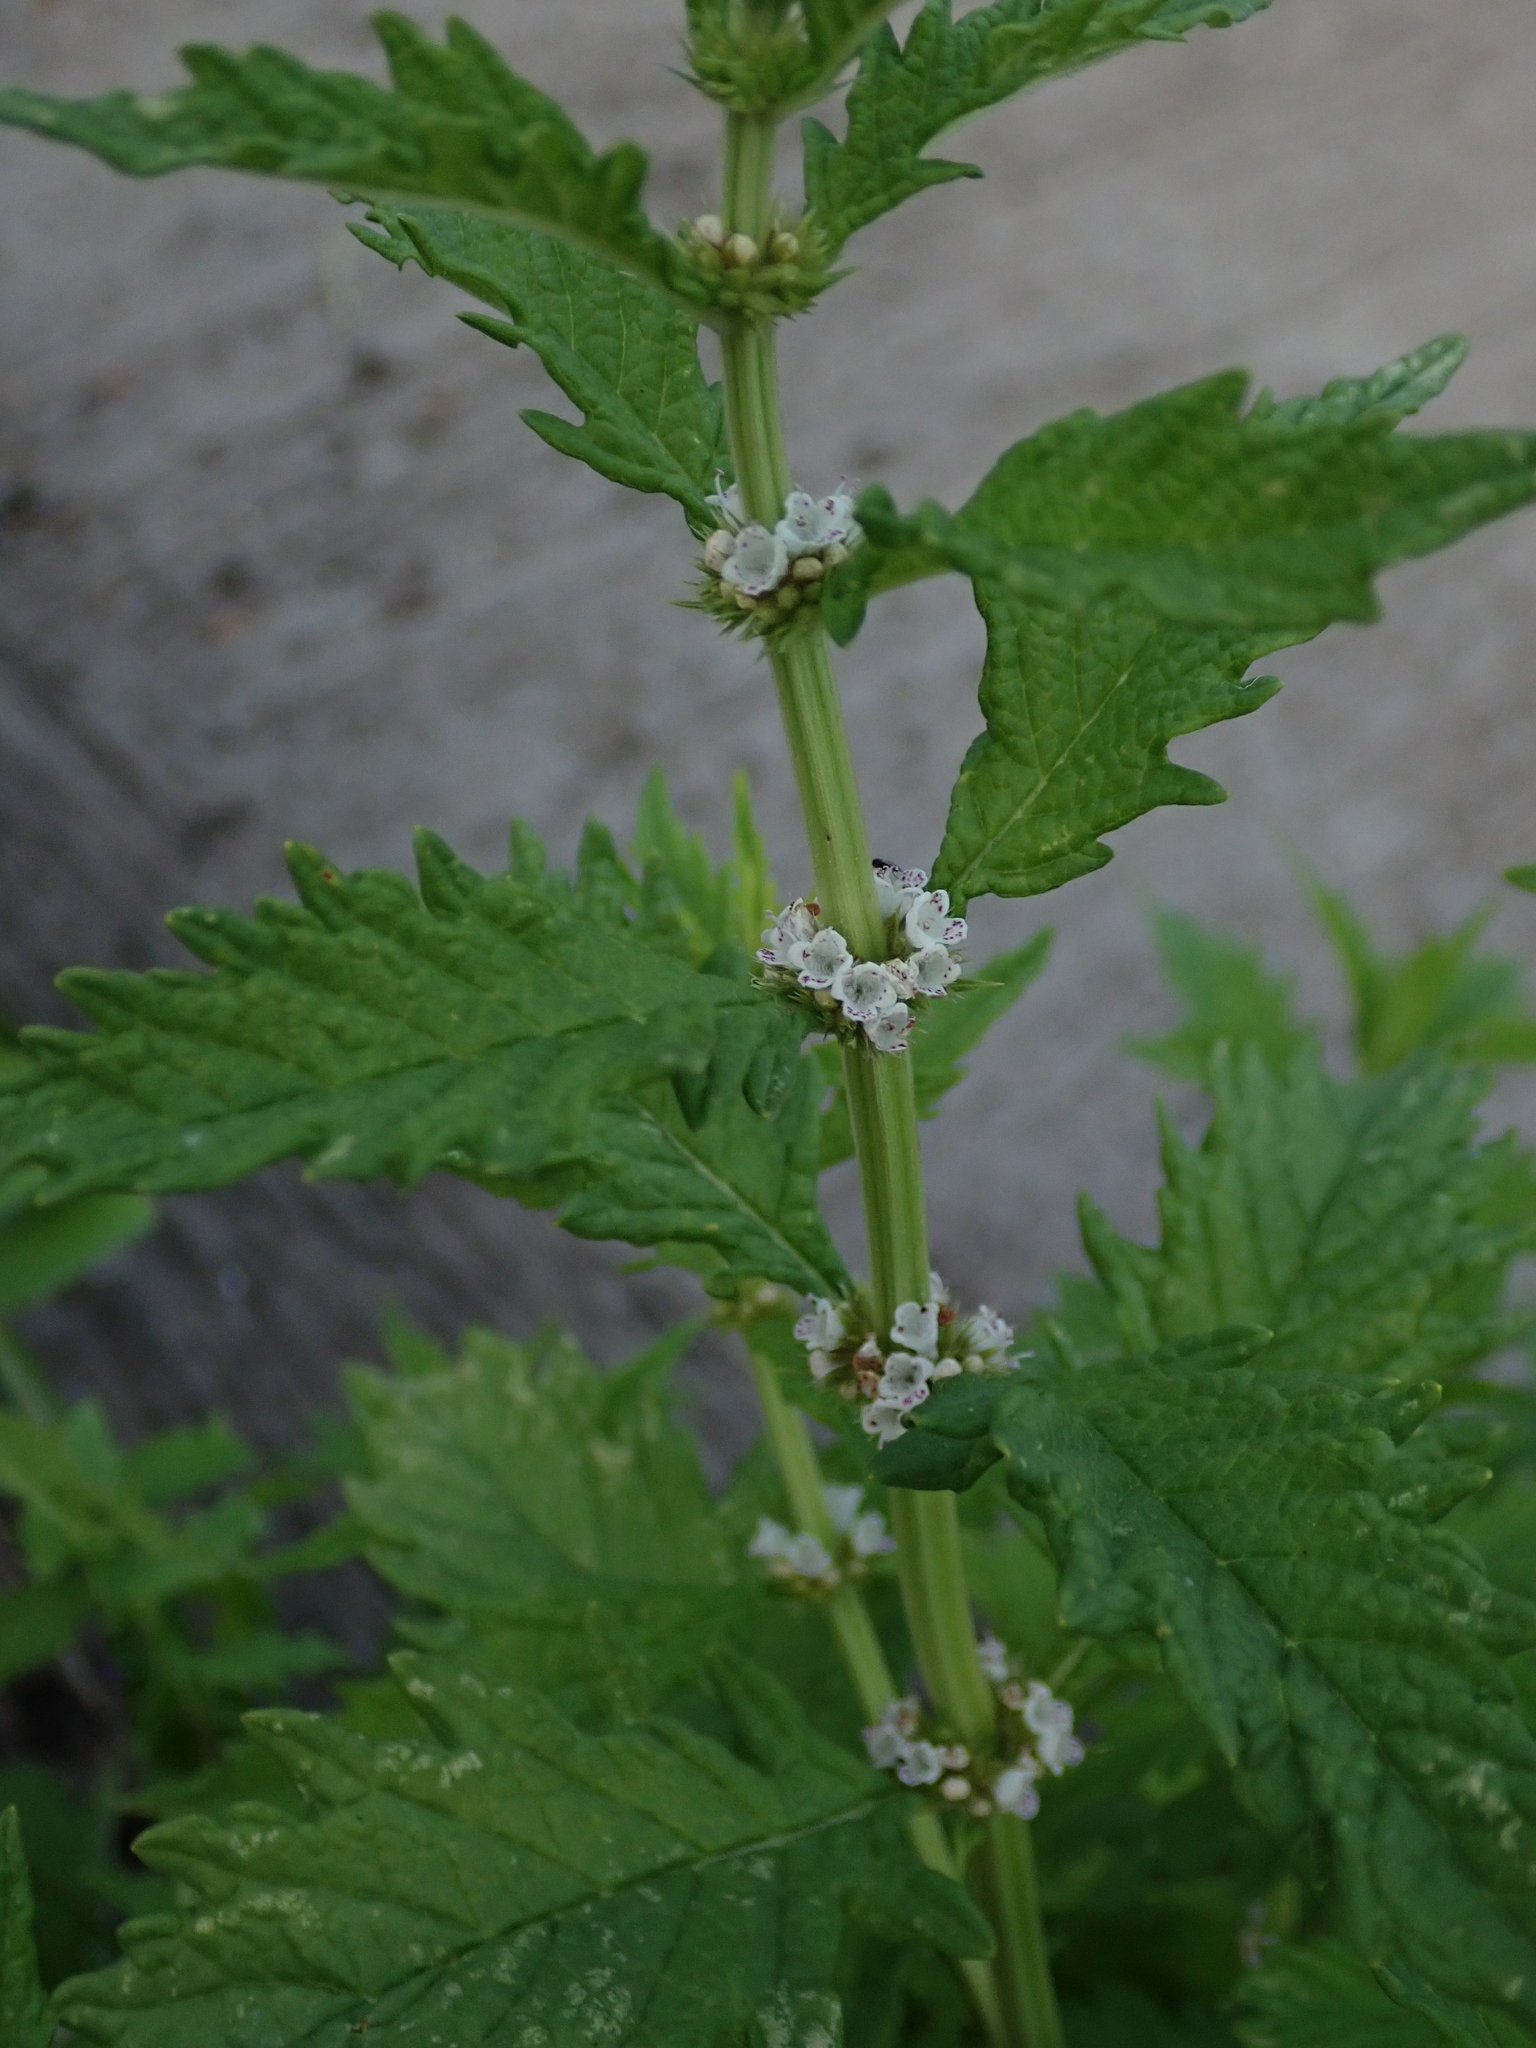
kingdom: Plantae
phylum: Tracheophyta
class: Magnoliopsida
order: Lamiales
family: Lamiaceae
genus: Lycopus
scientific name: Lycopus europaeus
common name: European bugleweed
